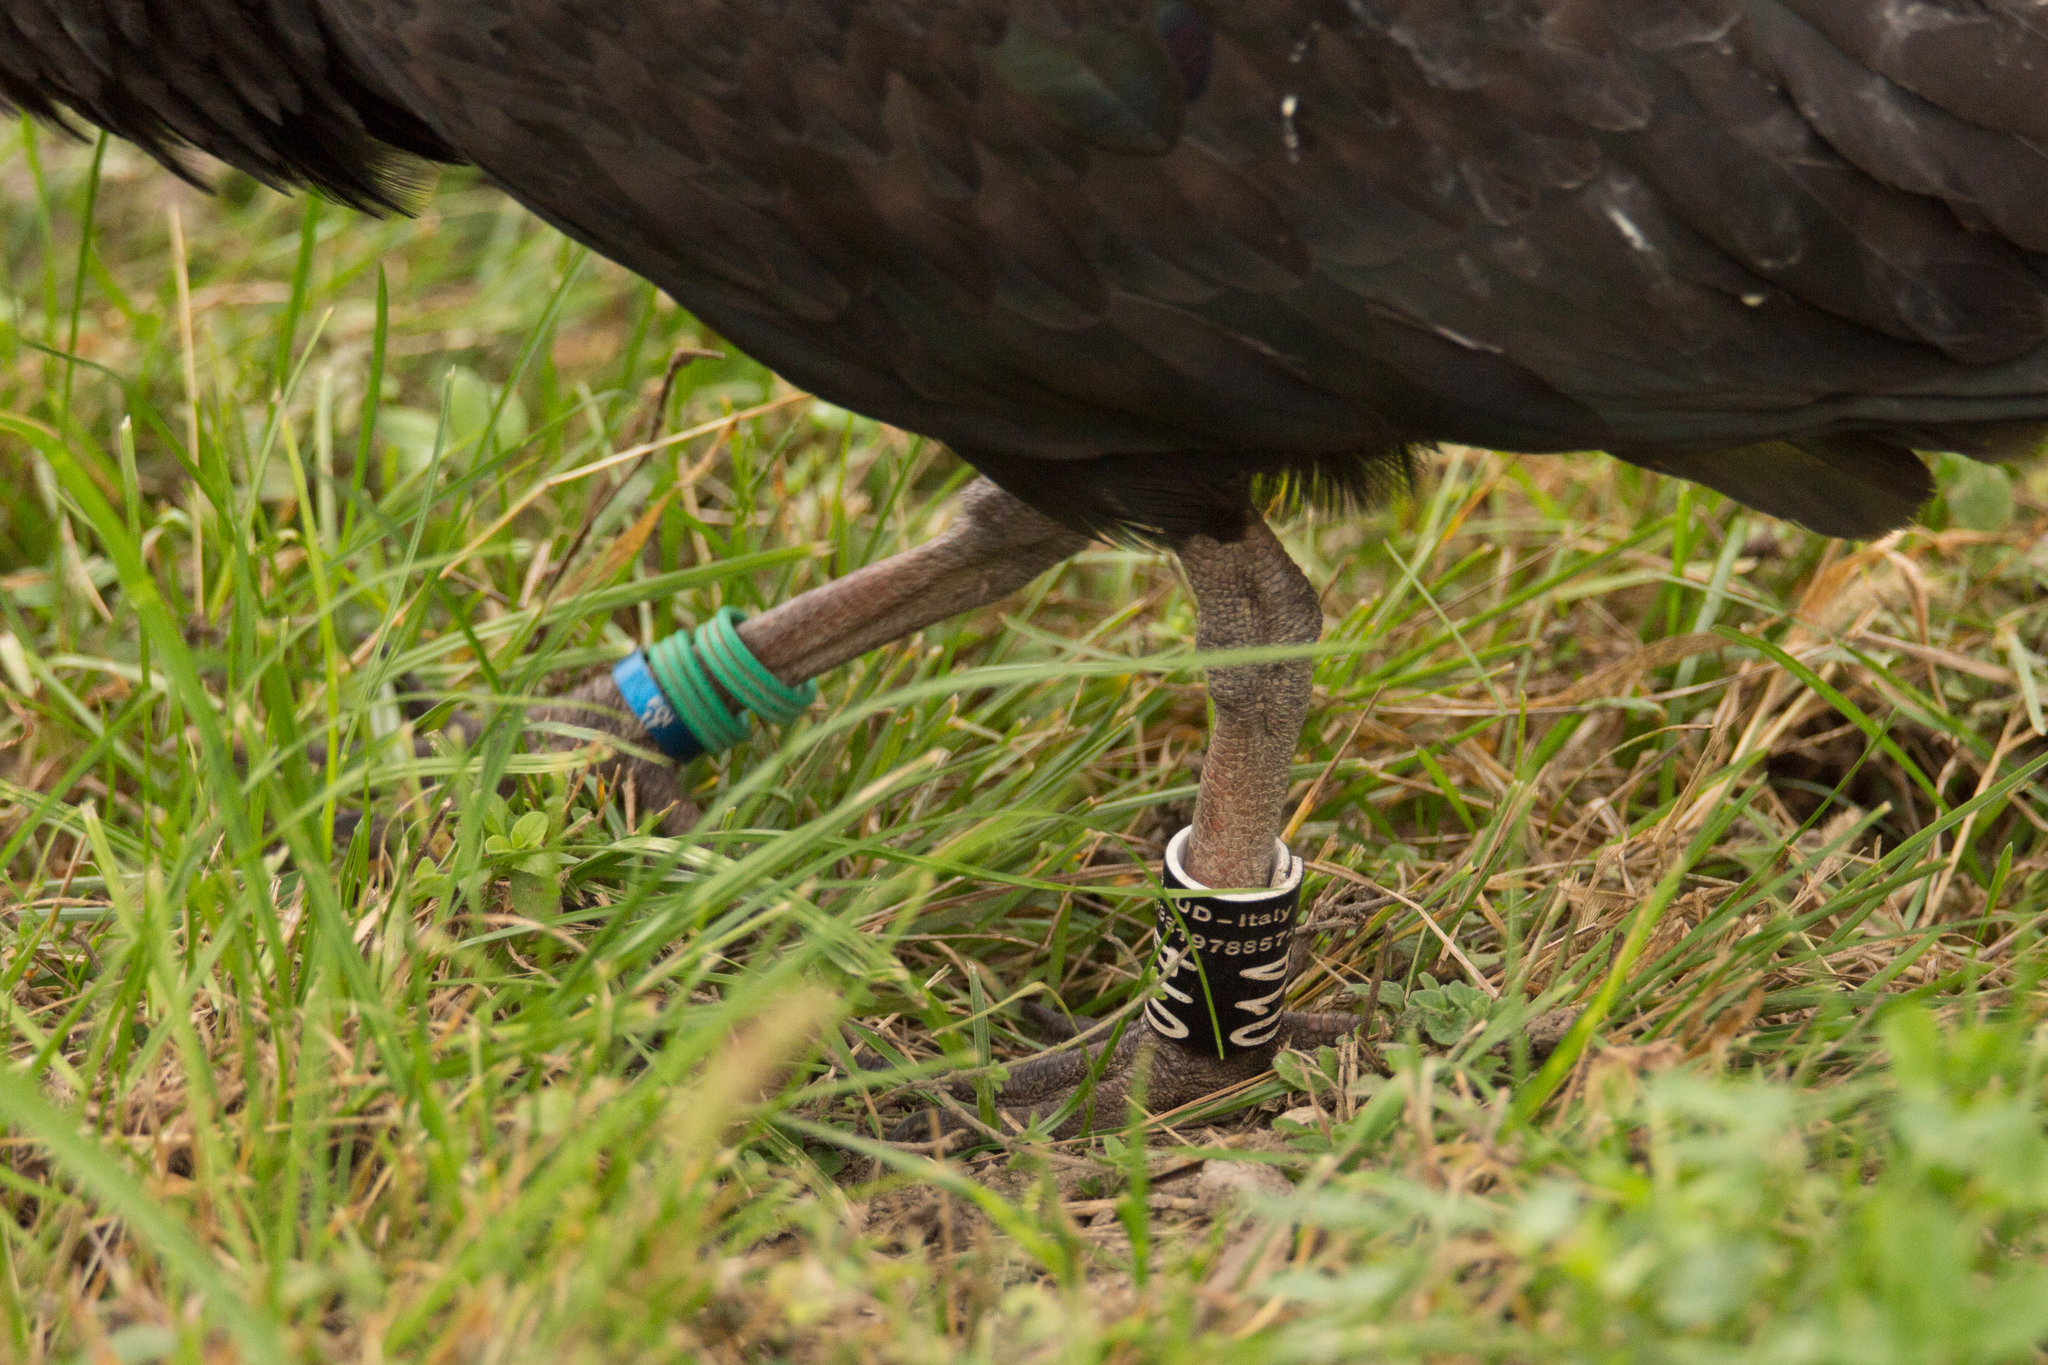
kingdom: Animalia
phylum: Chordata
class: Aves
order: Pelecaniformes
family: Threskiornithidae
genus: Geronticus
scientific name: Geronticus eremita
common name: Northern bald ibis
